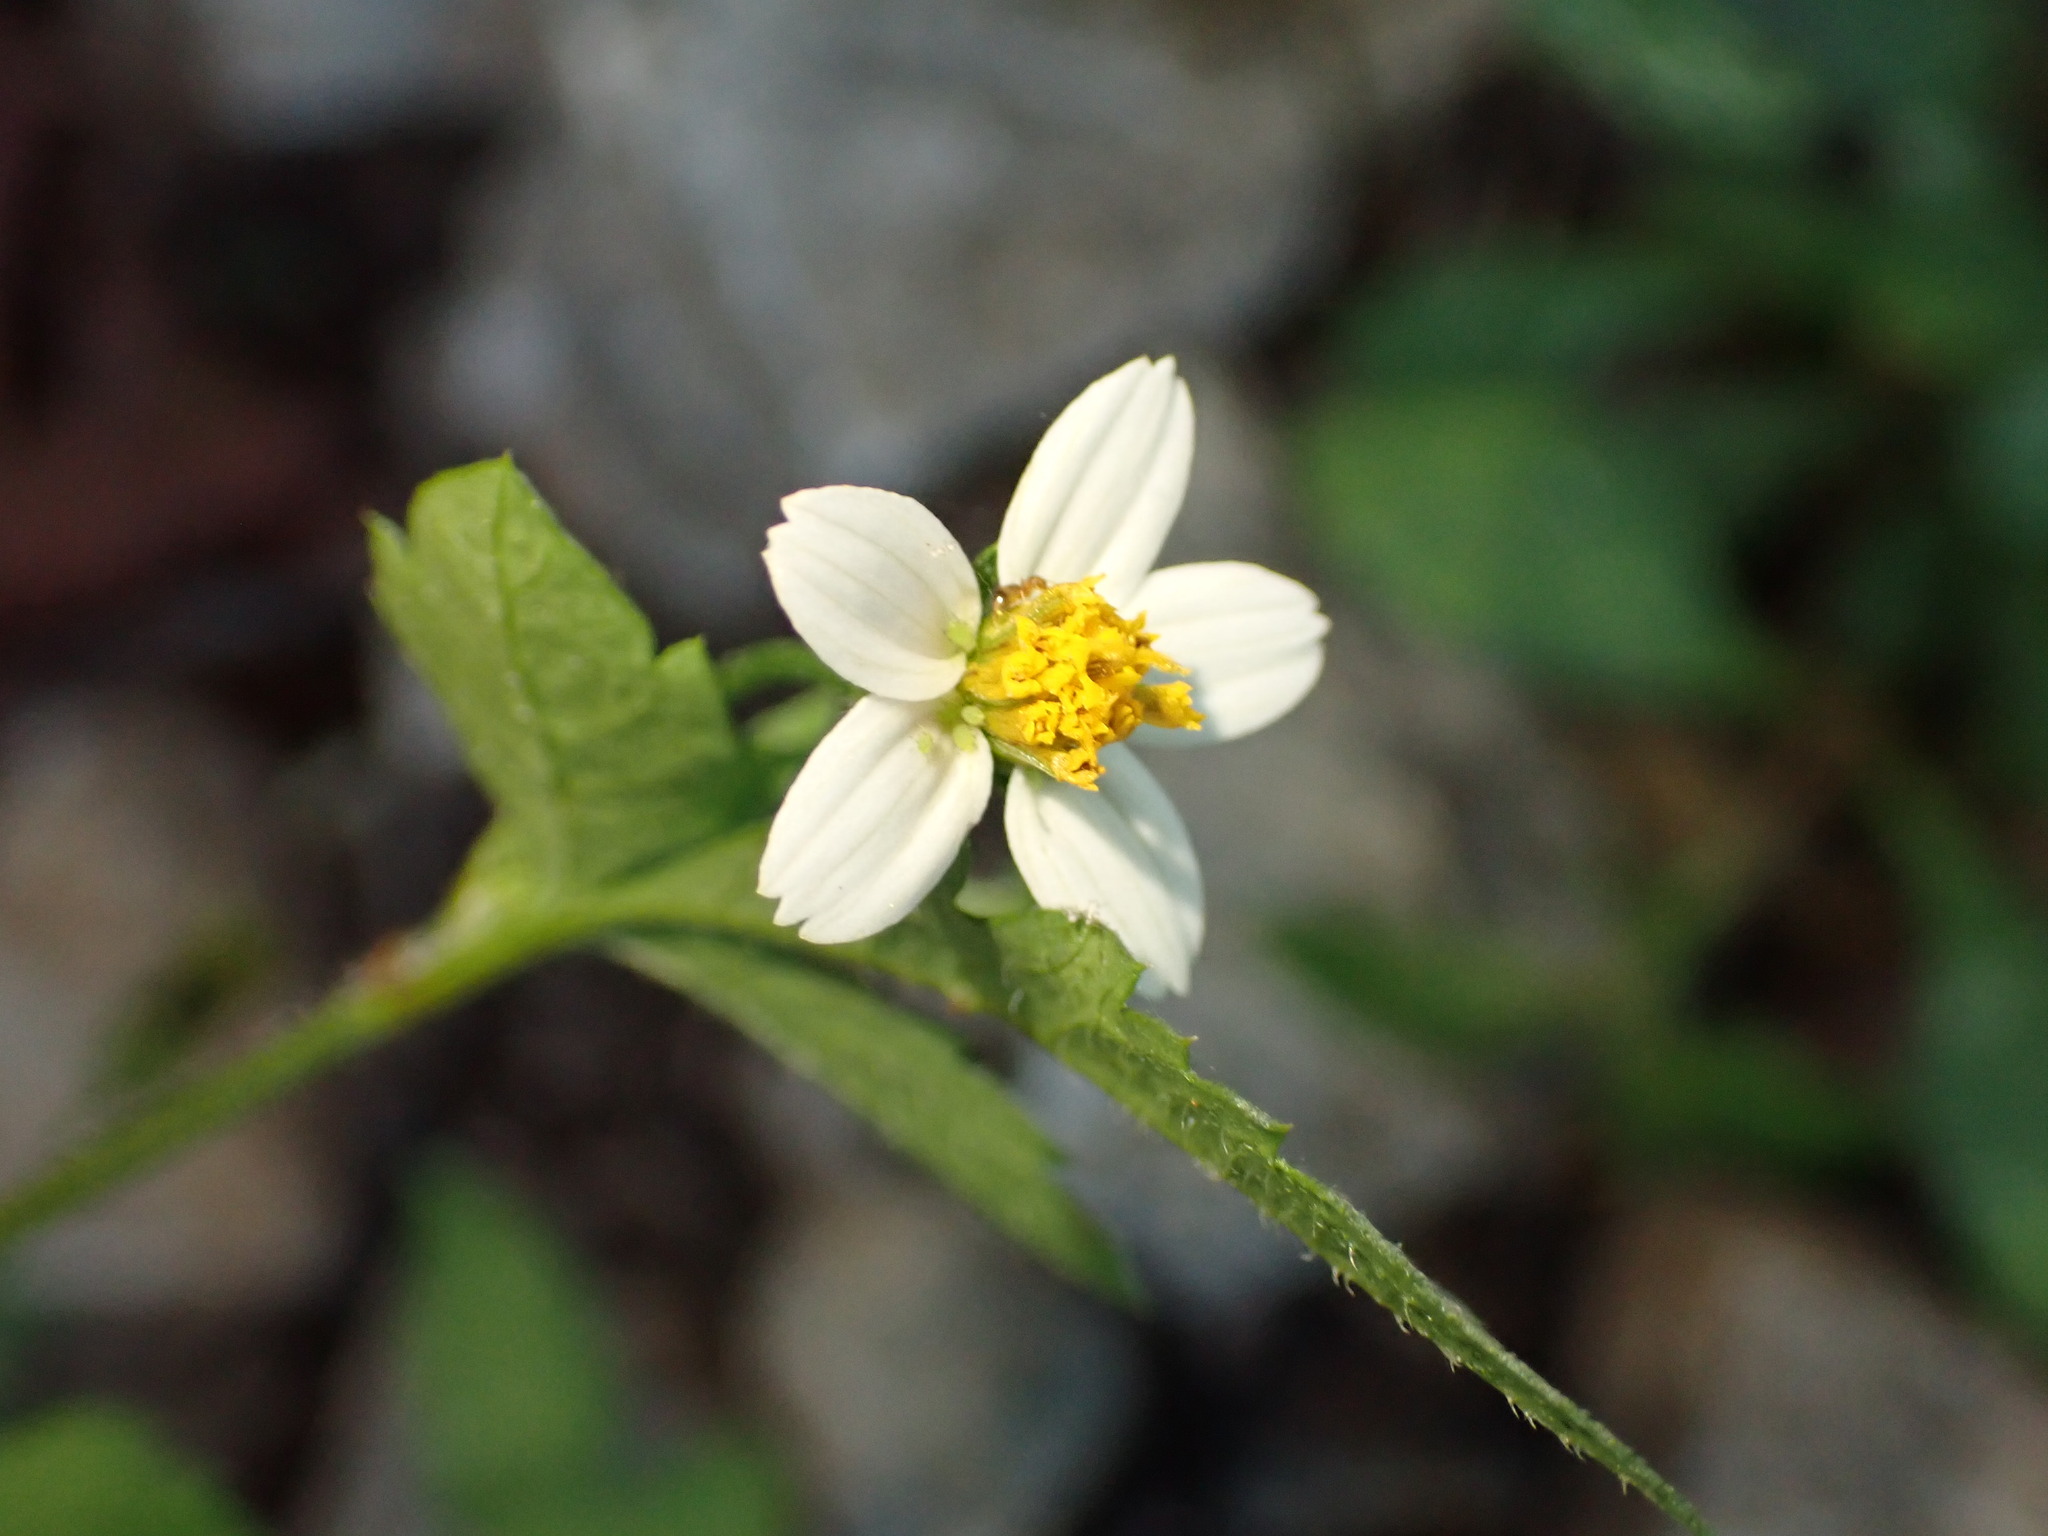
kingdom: Plantae
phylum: Tracheophyta
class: Magnoliopsida
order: Asterales
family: Asteraceae
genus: Bidens
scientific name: Bidens pilosa
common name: Black-jack
